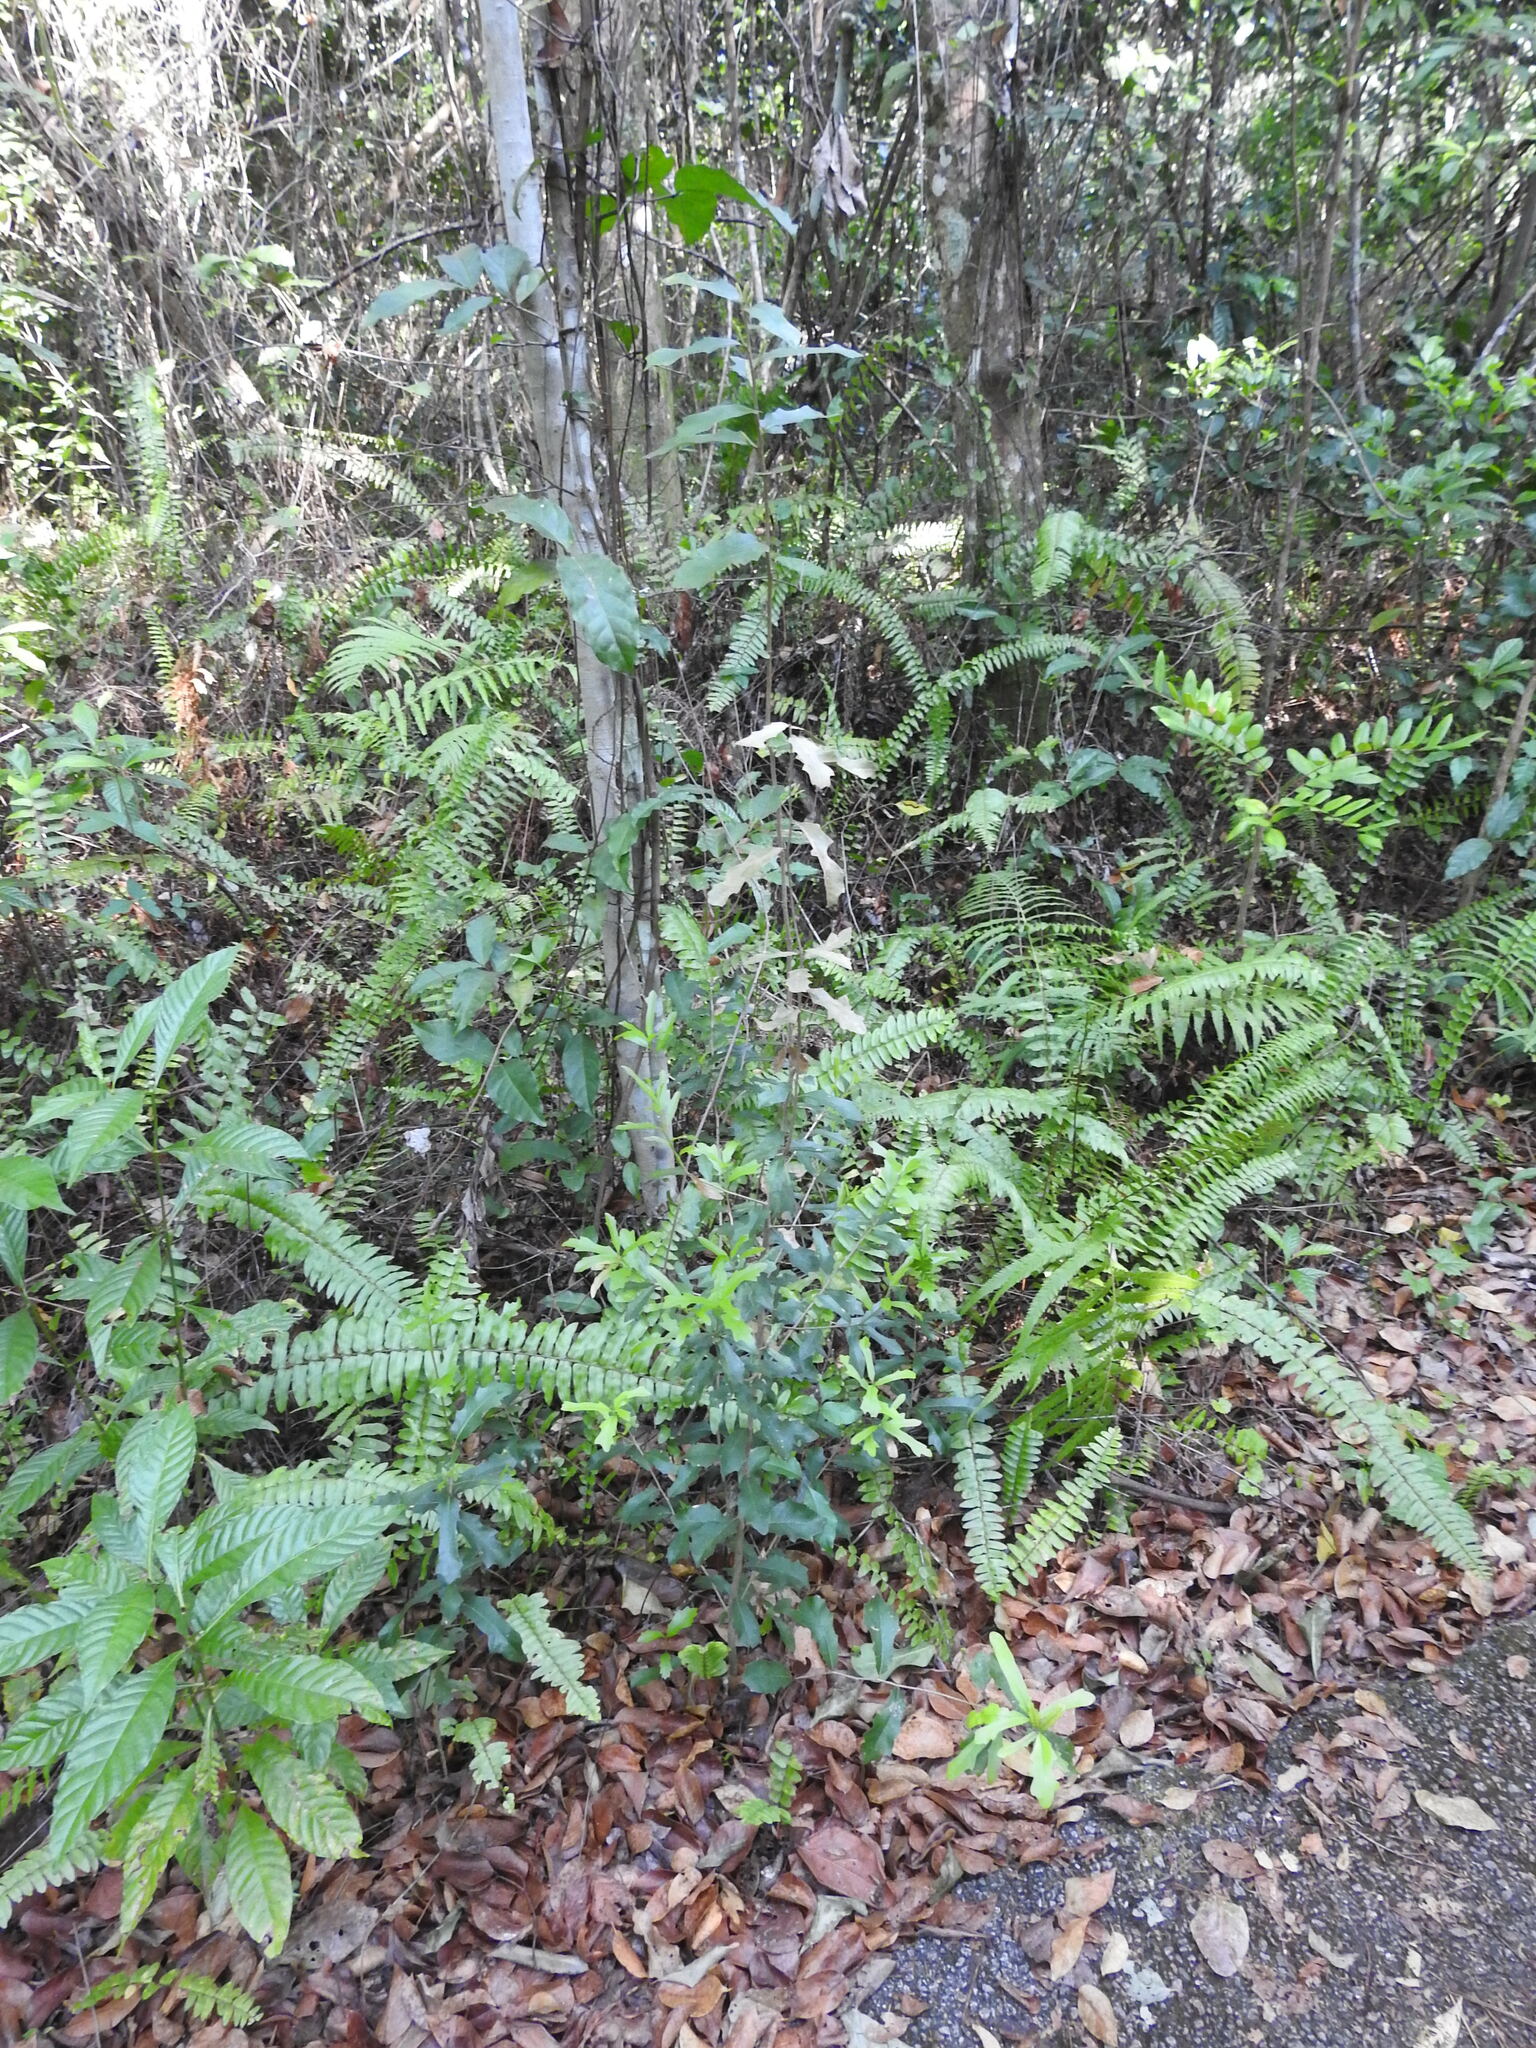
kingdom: Plantae
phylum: Tracheophyta
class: Magnoliopsida
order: Fagales
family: Fagaceae
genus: Quercus
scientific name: Quercus virginiana
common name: Southern live oak
